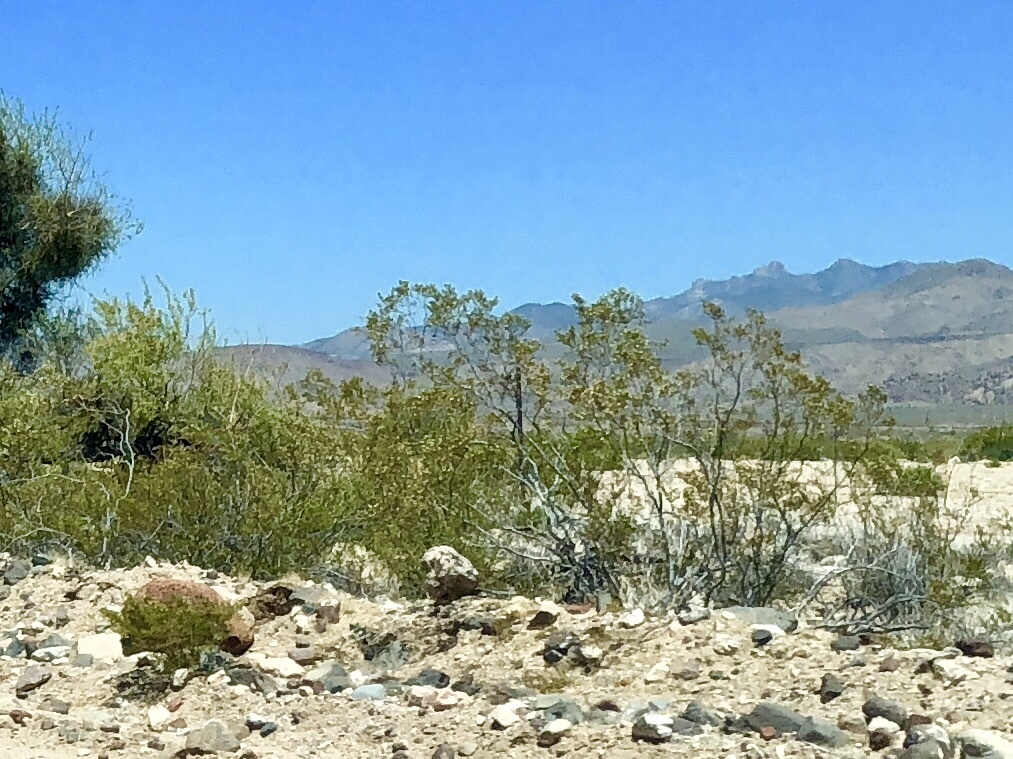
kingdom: Plantae
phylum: Tracheophyta
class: Magnoliopsida
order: Zygophyllales
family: Zygophyllaceae
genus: Larrea
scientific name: Larrea tridentata
